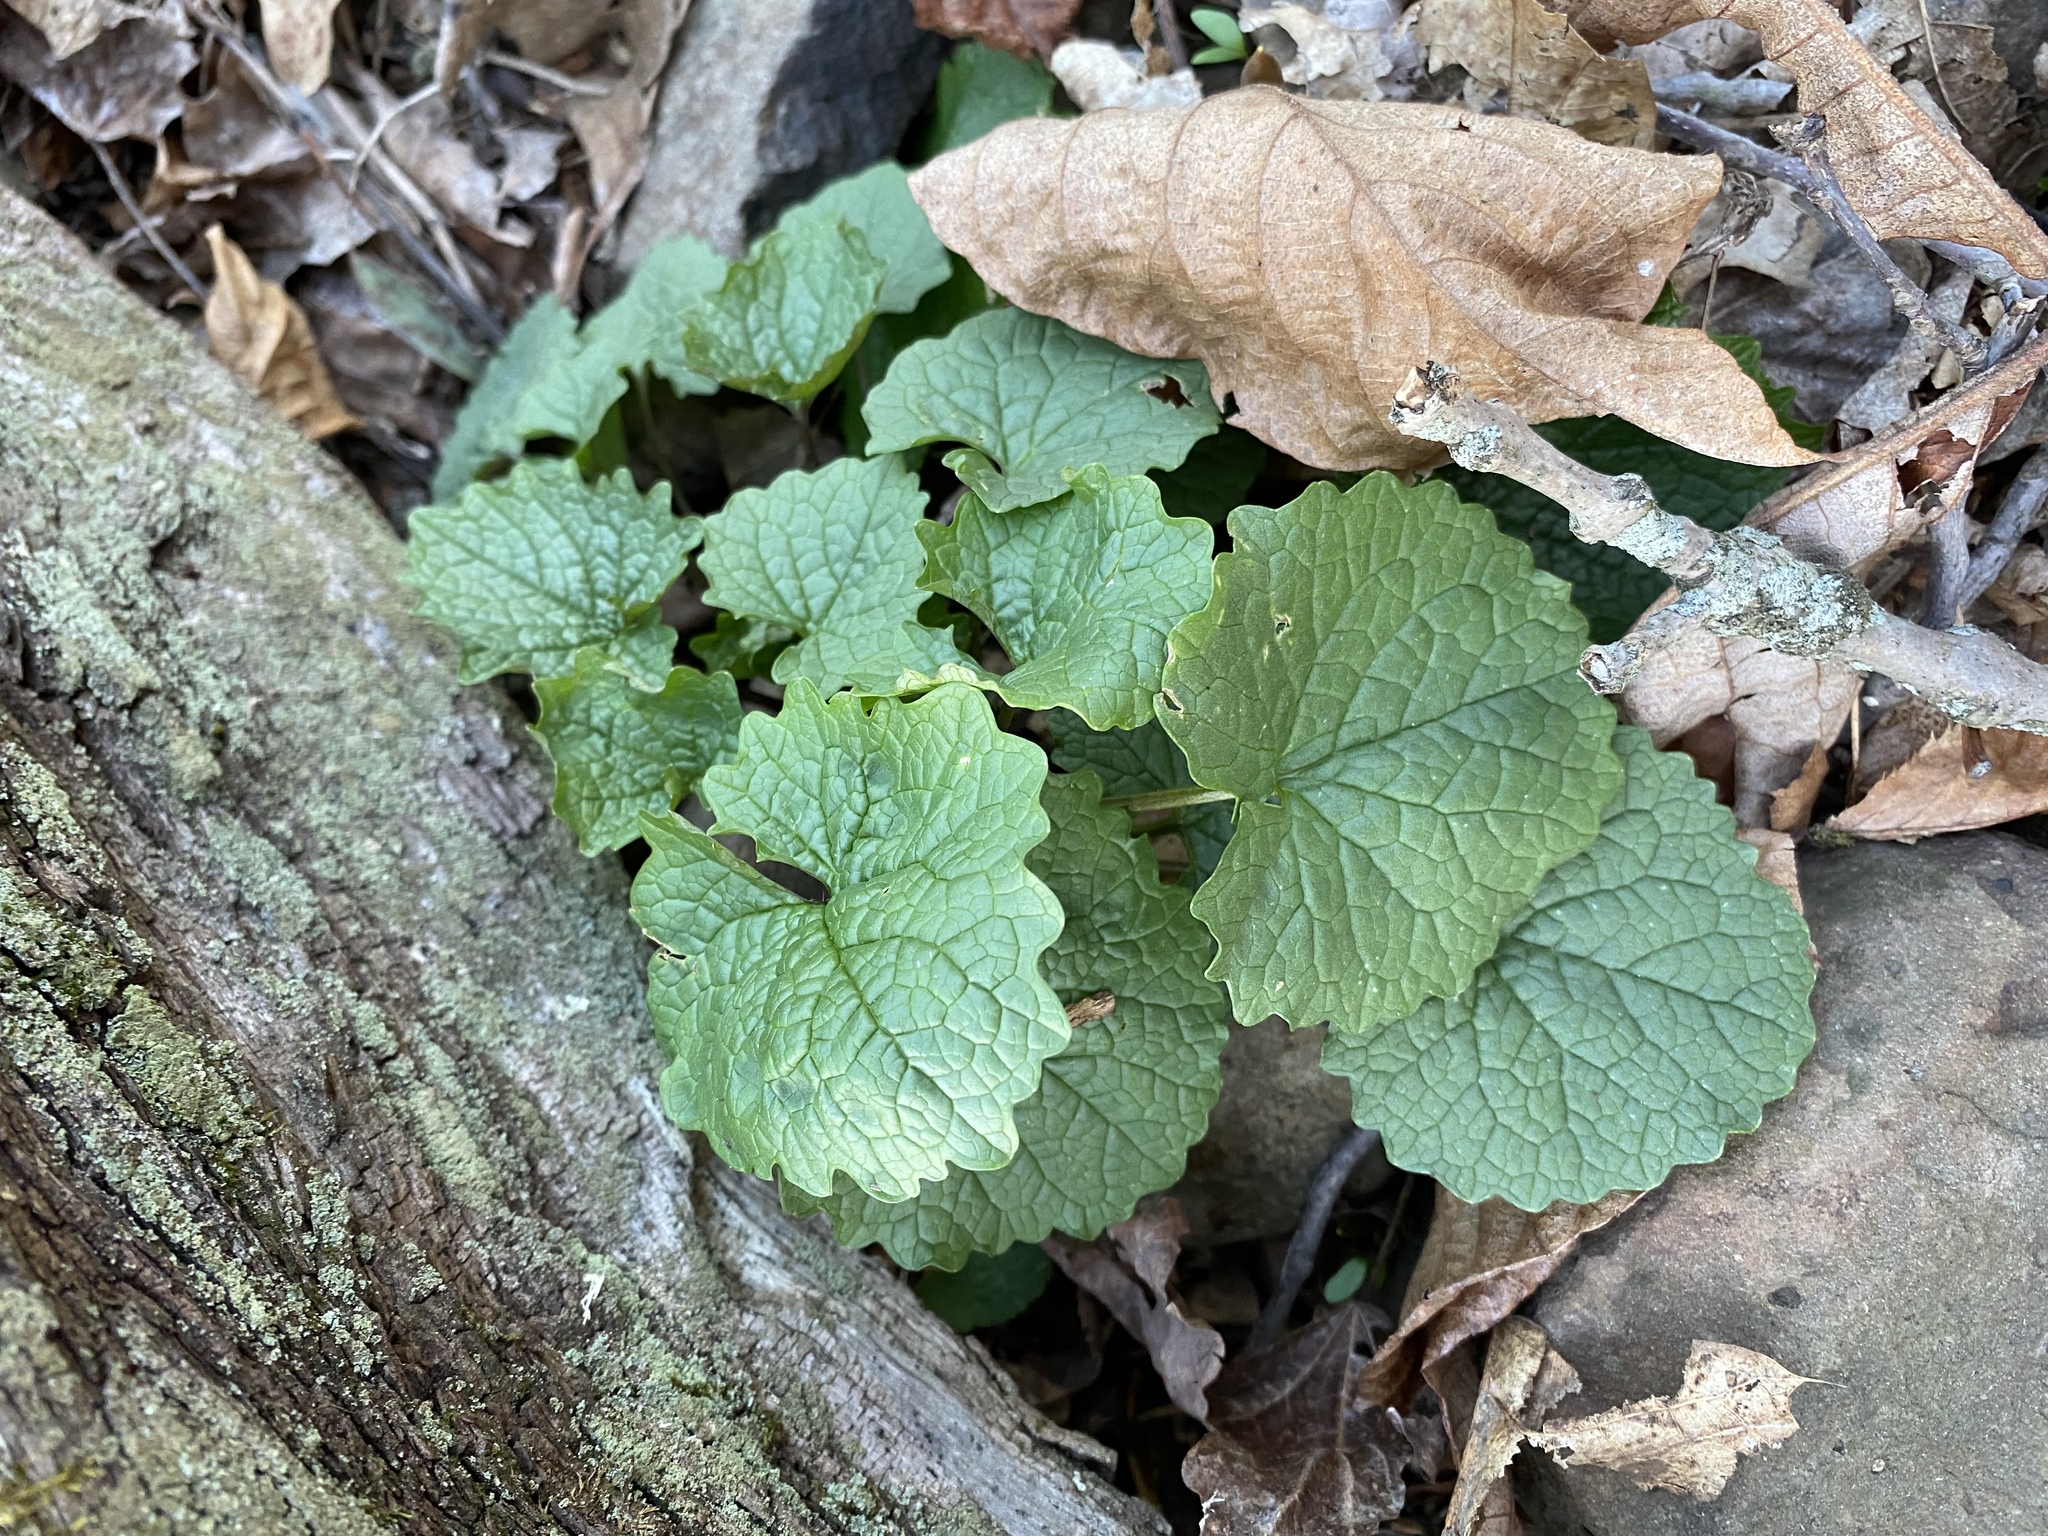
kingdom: Plantae
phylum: Tracheophyta
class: Magnoliopsida
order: Brassicales
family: Brassicaceae
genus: Alliaria
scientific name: Alliaria petiolata
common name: Garlic mustard
